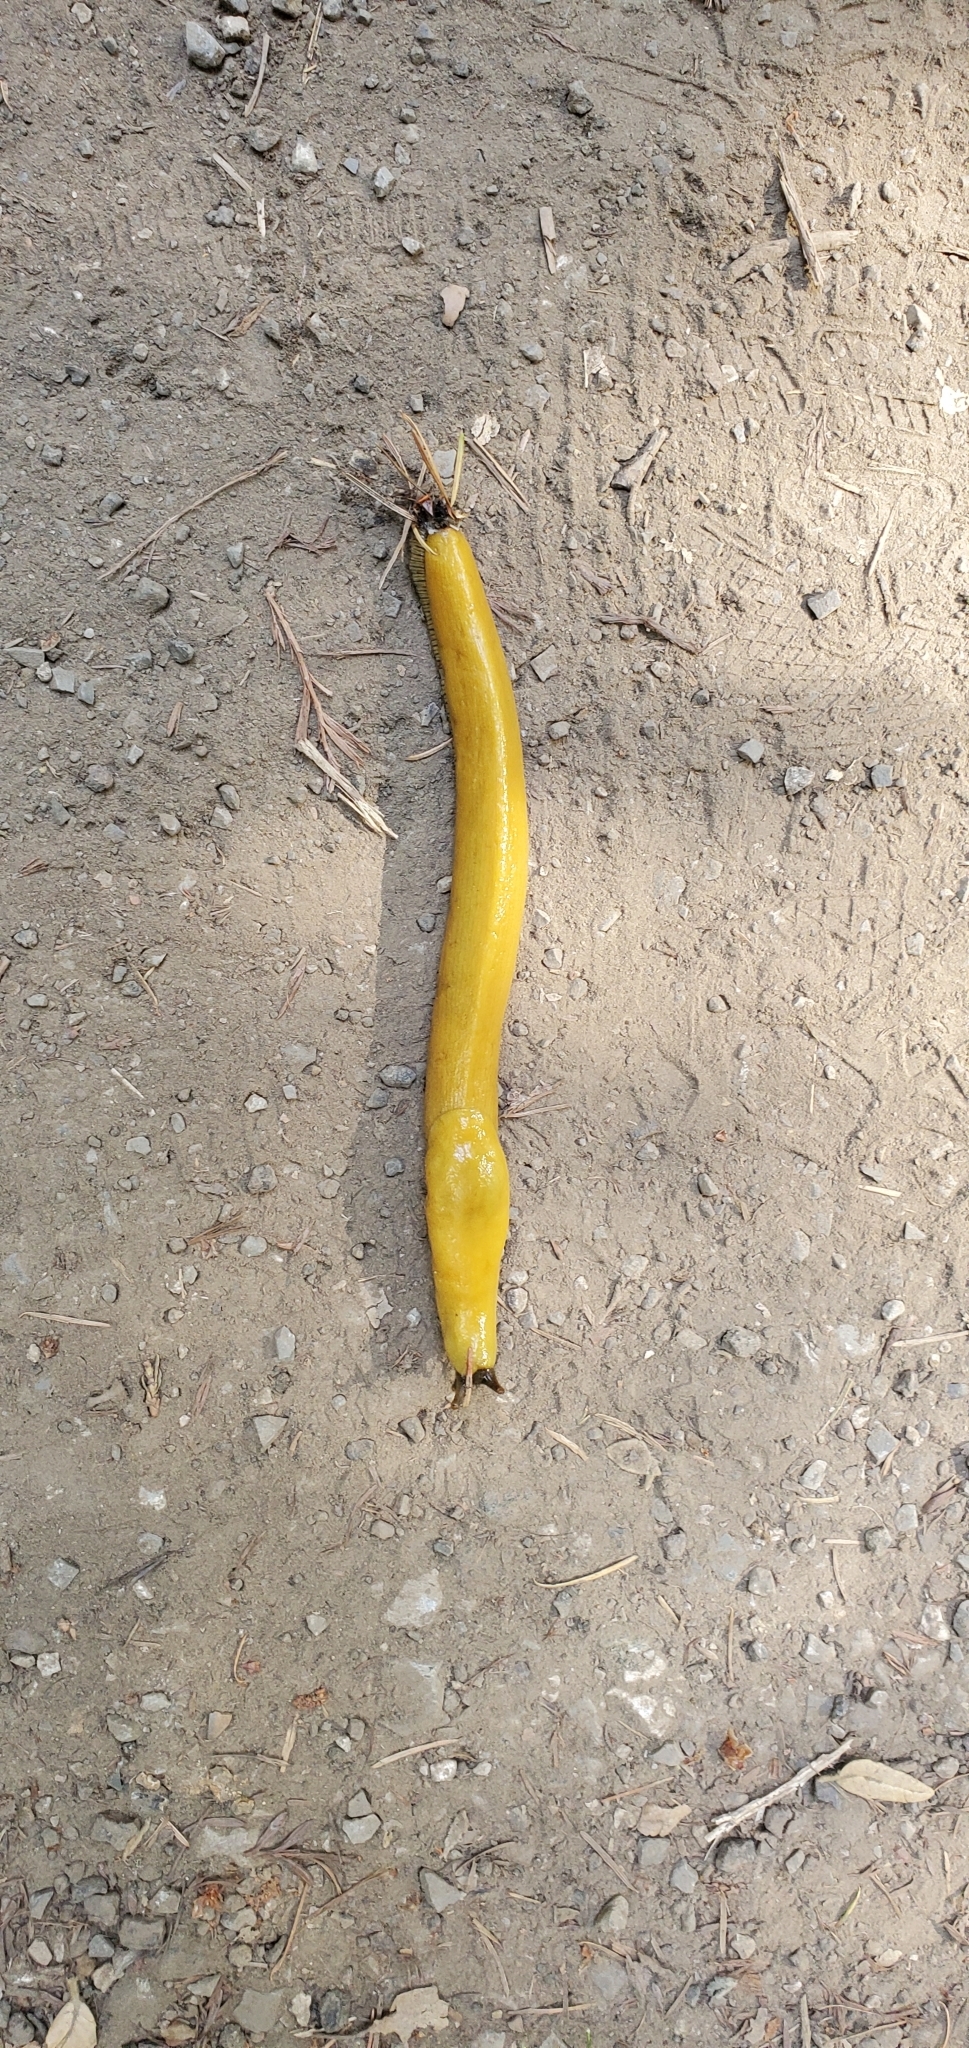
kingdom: Animalia
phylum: Mollusca
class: Gastropoda
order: Stylommatophora
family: Ariolimacidae
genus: Ariolimax
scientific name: Ariolimax californicus
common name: California banana slug
